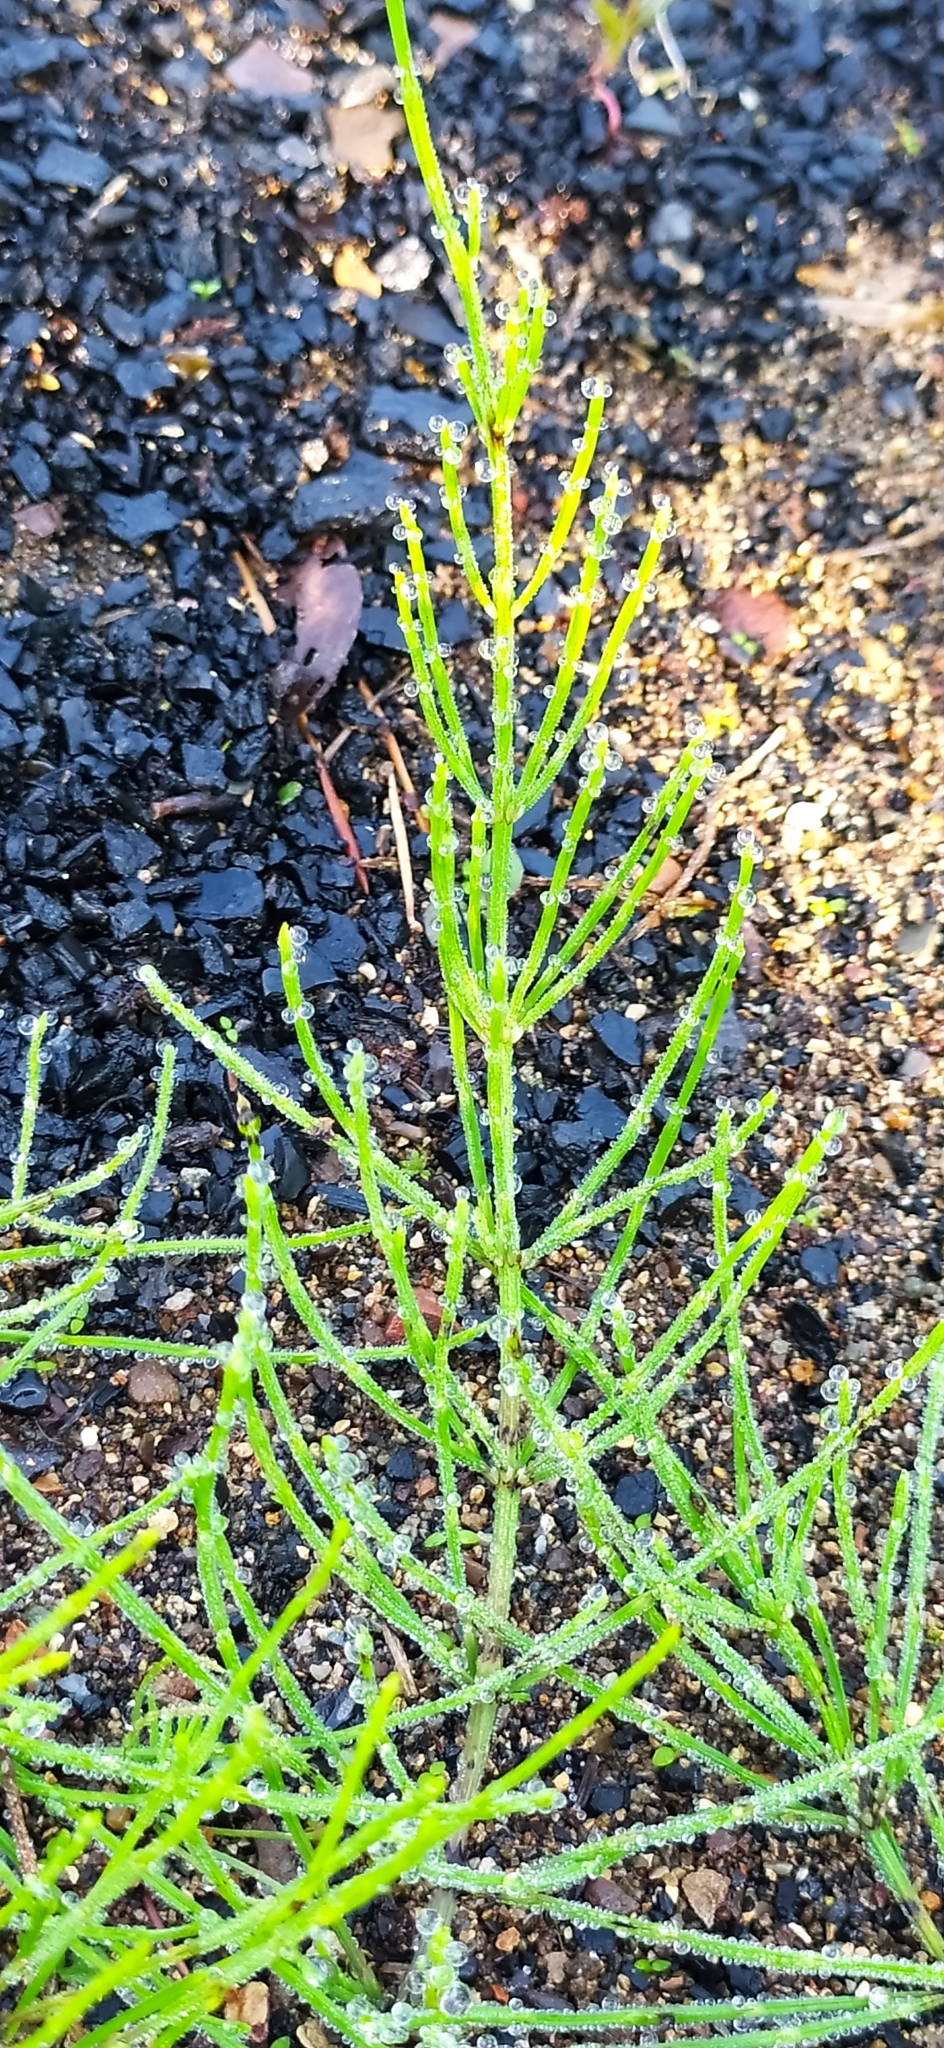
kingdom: Plantae
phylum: Tracheophyta
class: Polypodiopsida
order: Equisetales
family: Equisetaceae
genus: Equisetum
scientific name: Equisetum arvense
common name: Field horsetail
